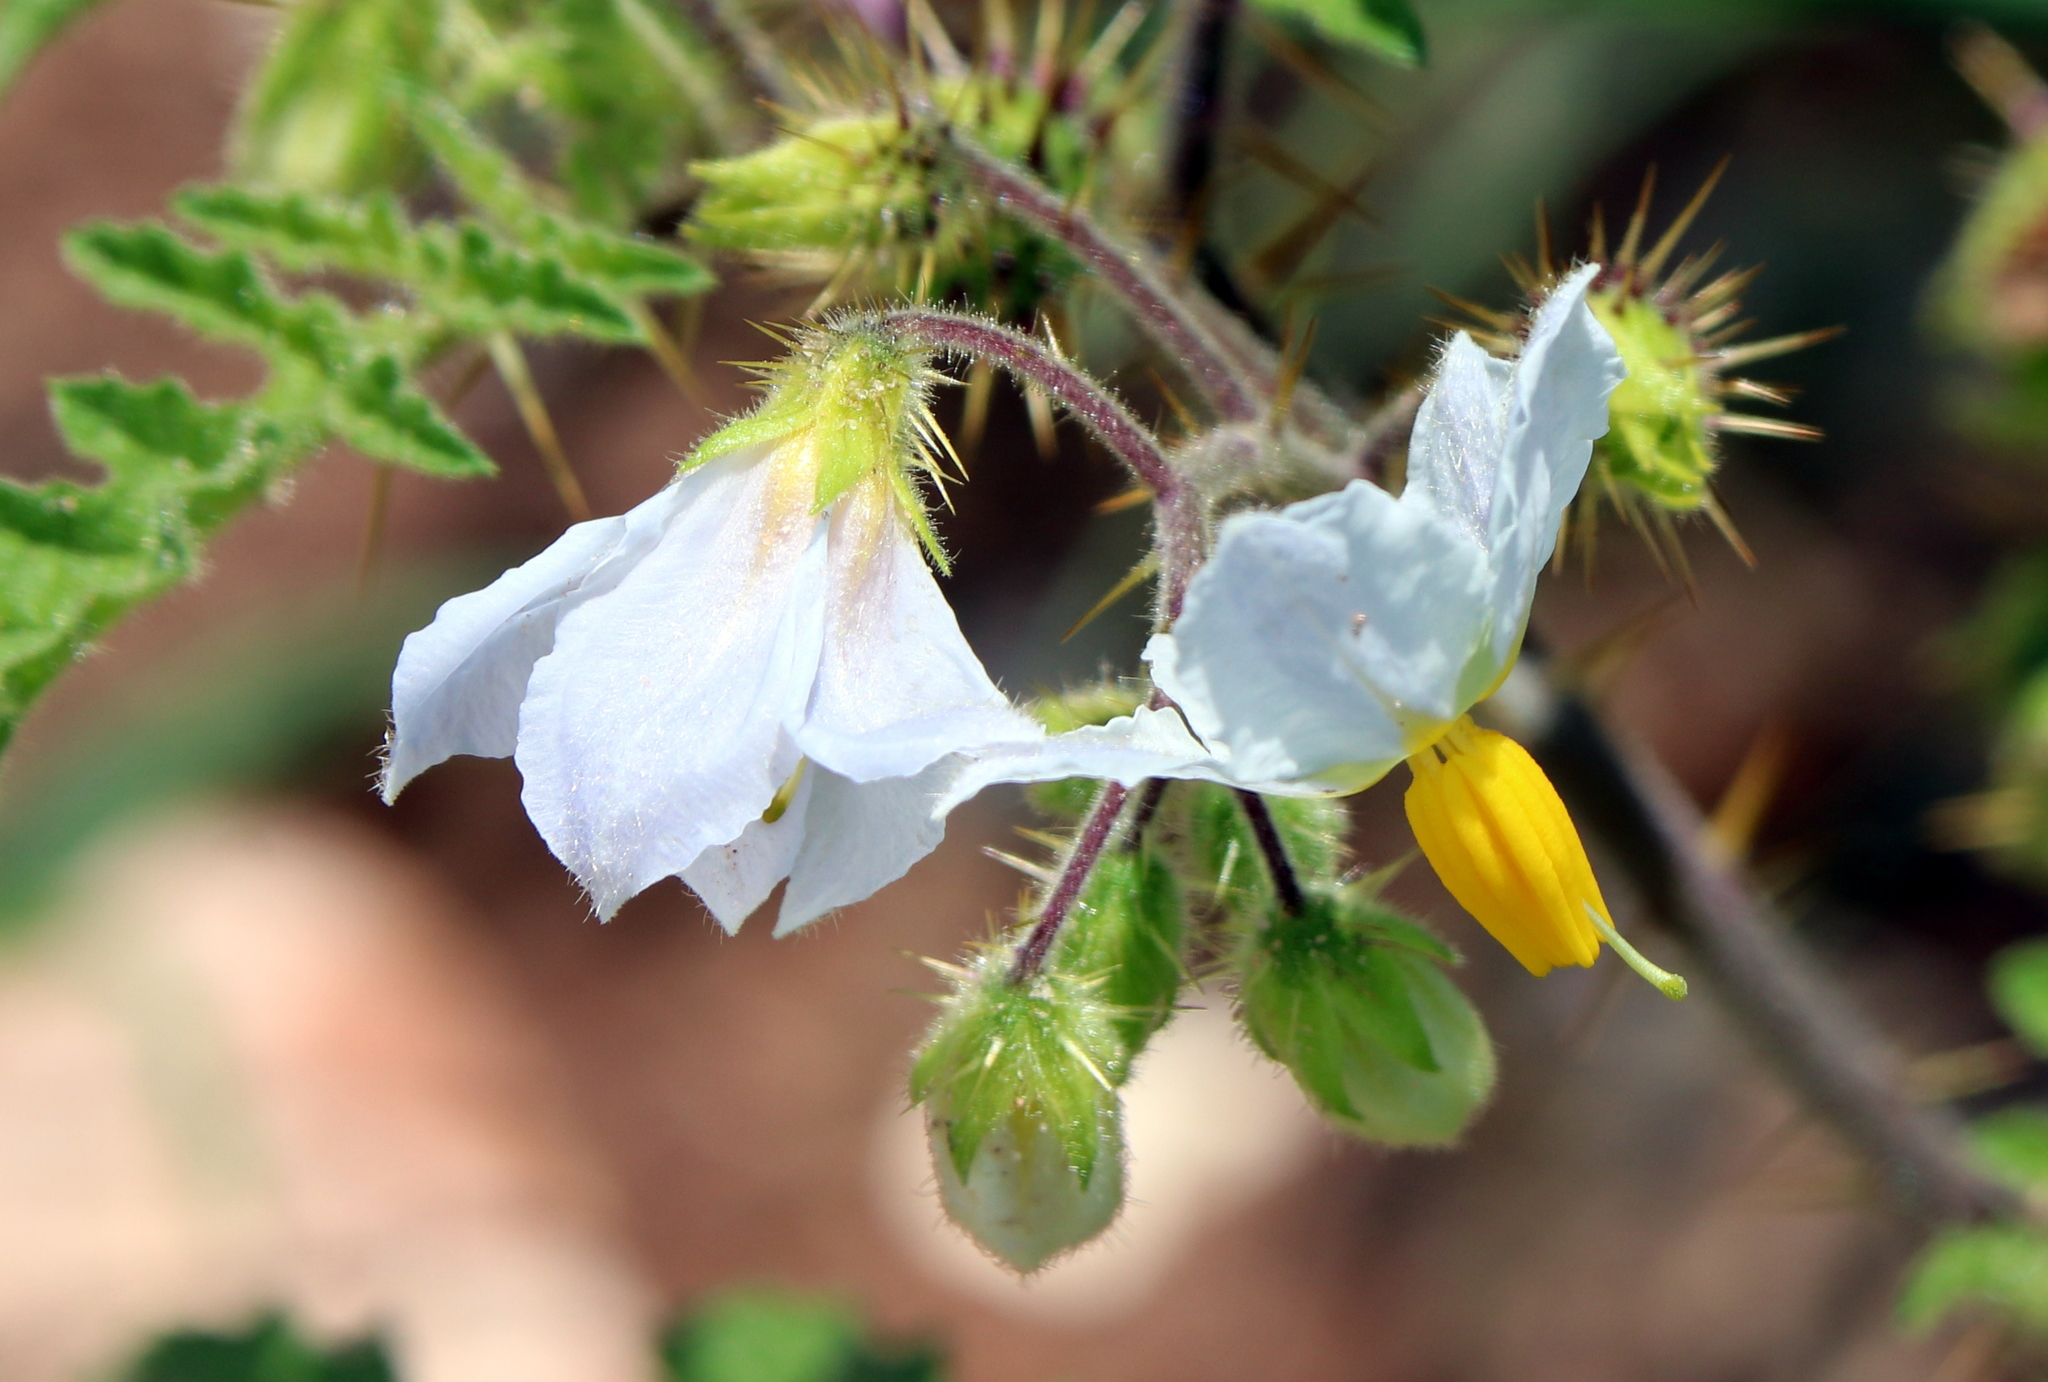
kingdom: Plantae
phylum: Tracheophyta
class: Magnoliopsida
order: Solanales
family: Solanaceae
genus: Solanum
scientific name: Solanum sisymbriifolium
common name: Red buffalo-bur
